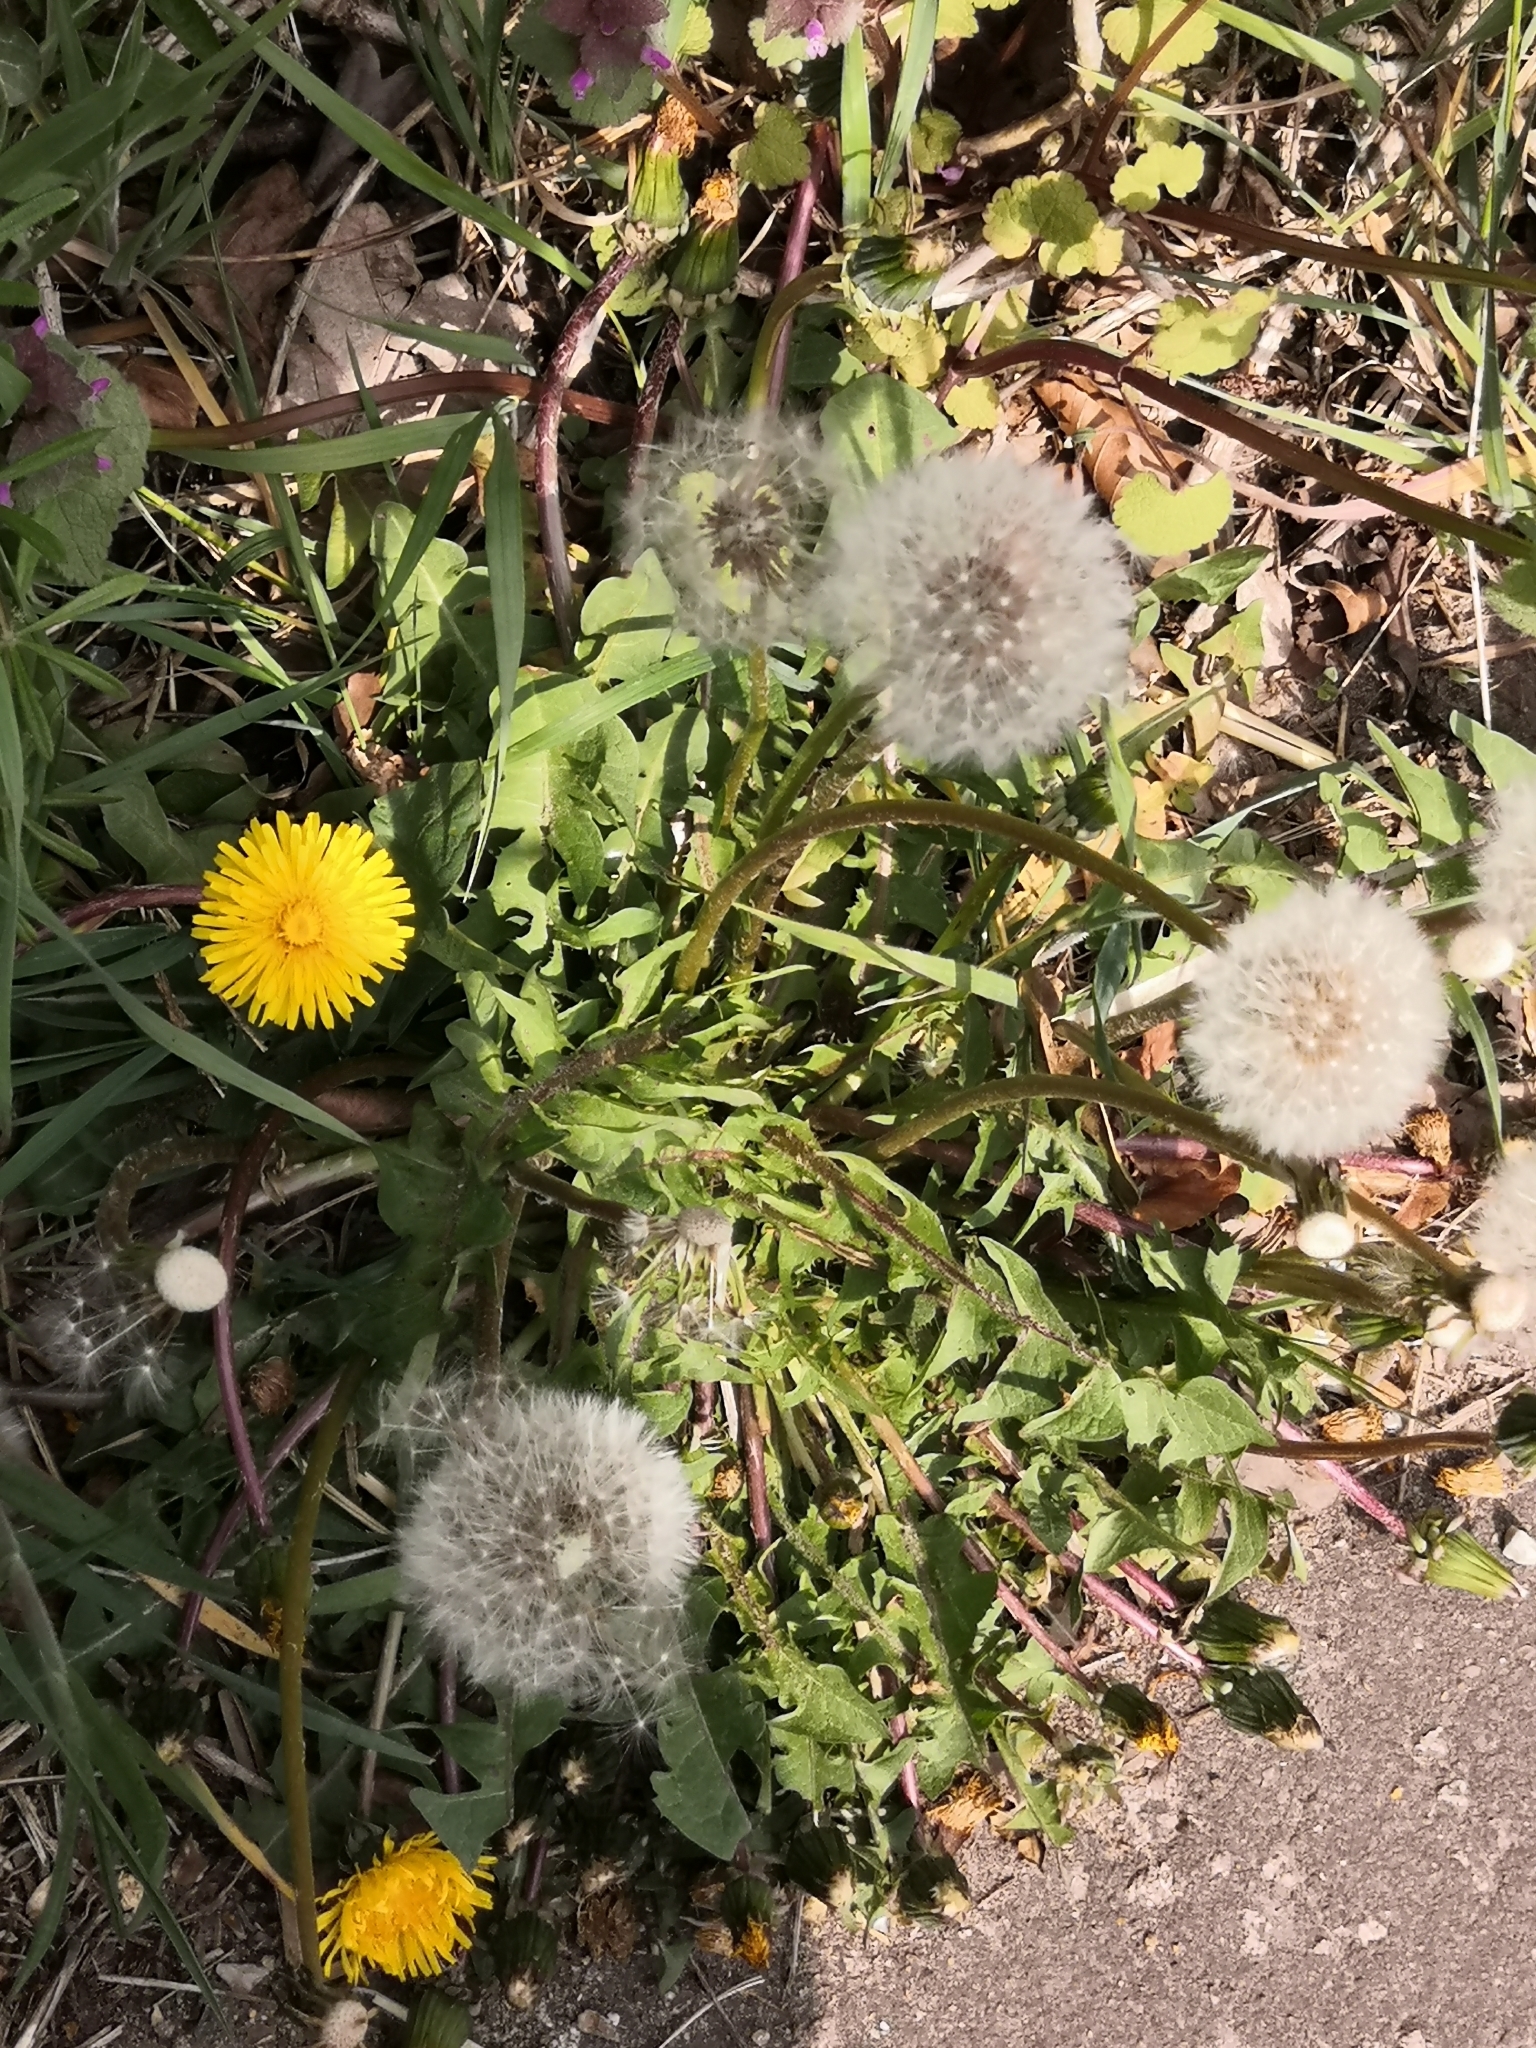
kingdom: Plantae
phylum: Tracheophyta
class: Magnoliopsida
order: Asterales
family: Asteraceae
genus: Taraxacum
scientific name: Taraxacum
